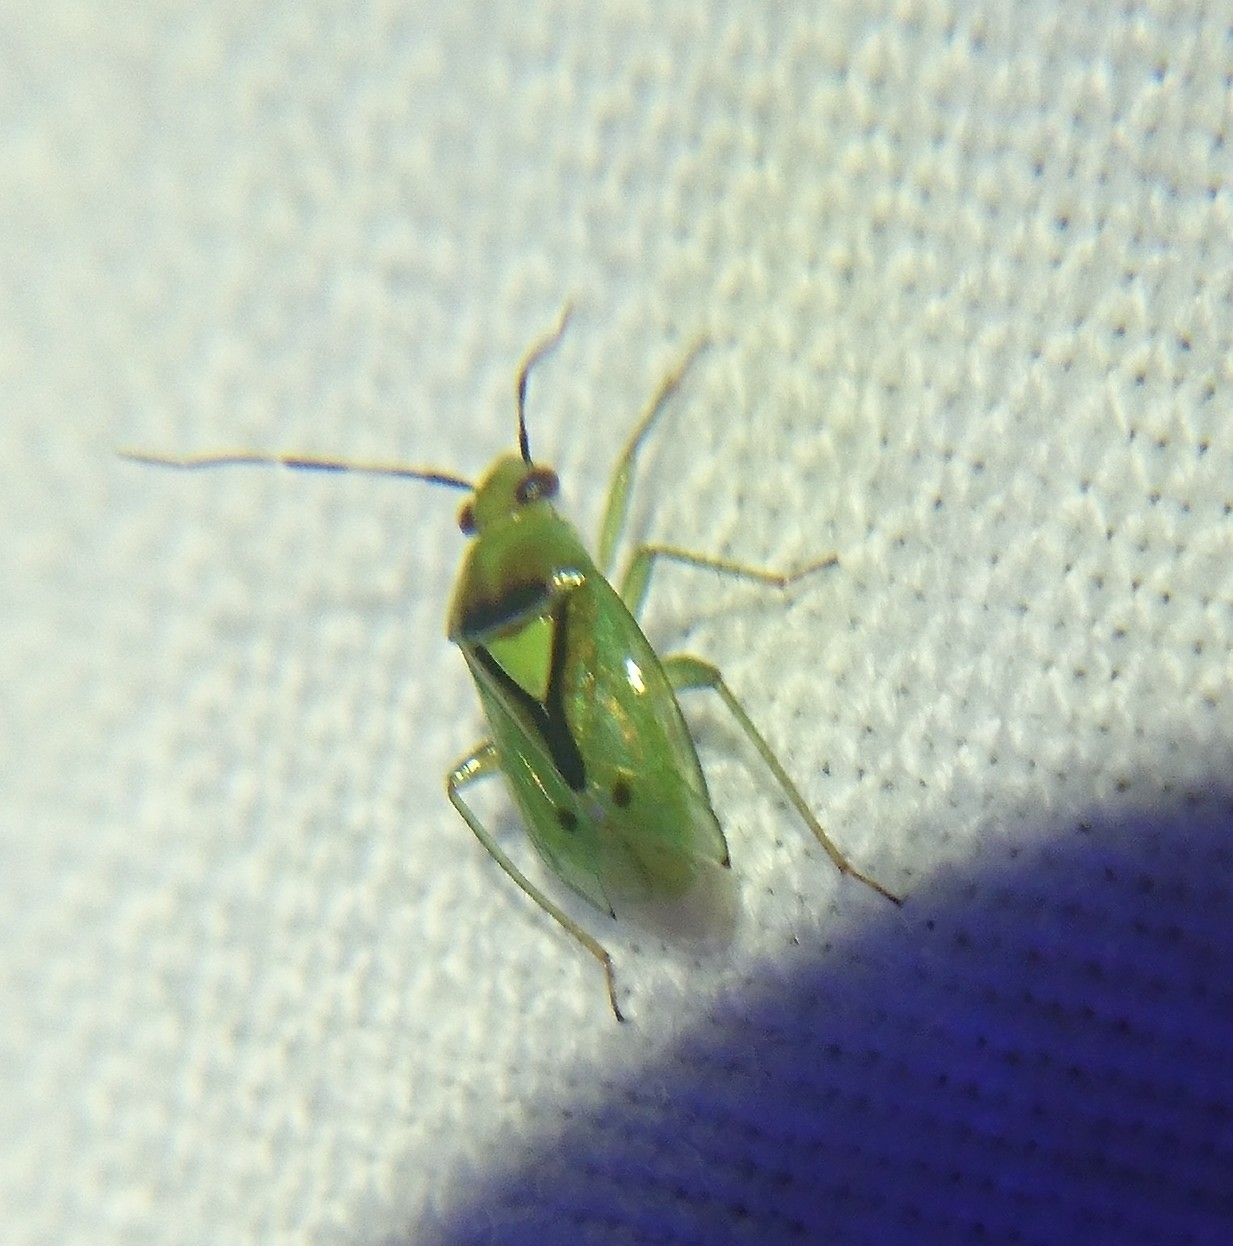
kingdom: Animalia
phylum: Arthropoda
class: Insecta
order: Hemiptera
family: Miridae
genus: Proba
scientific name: Proba distanti
